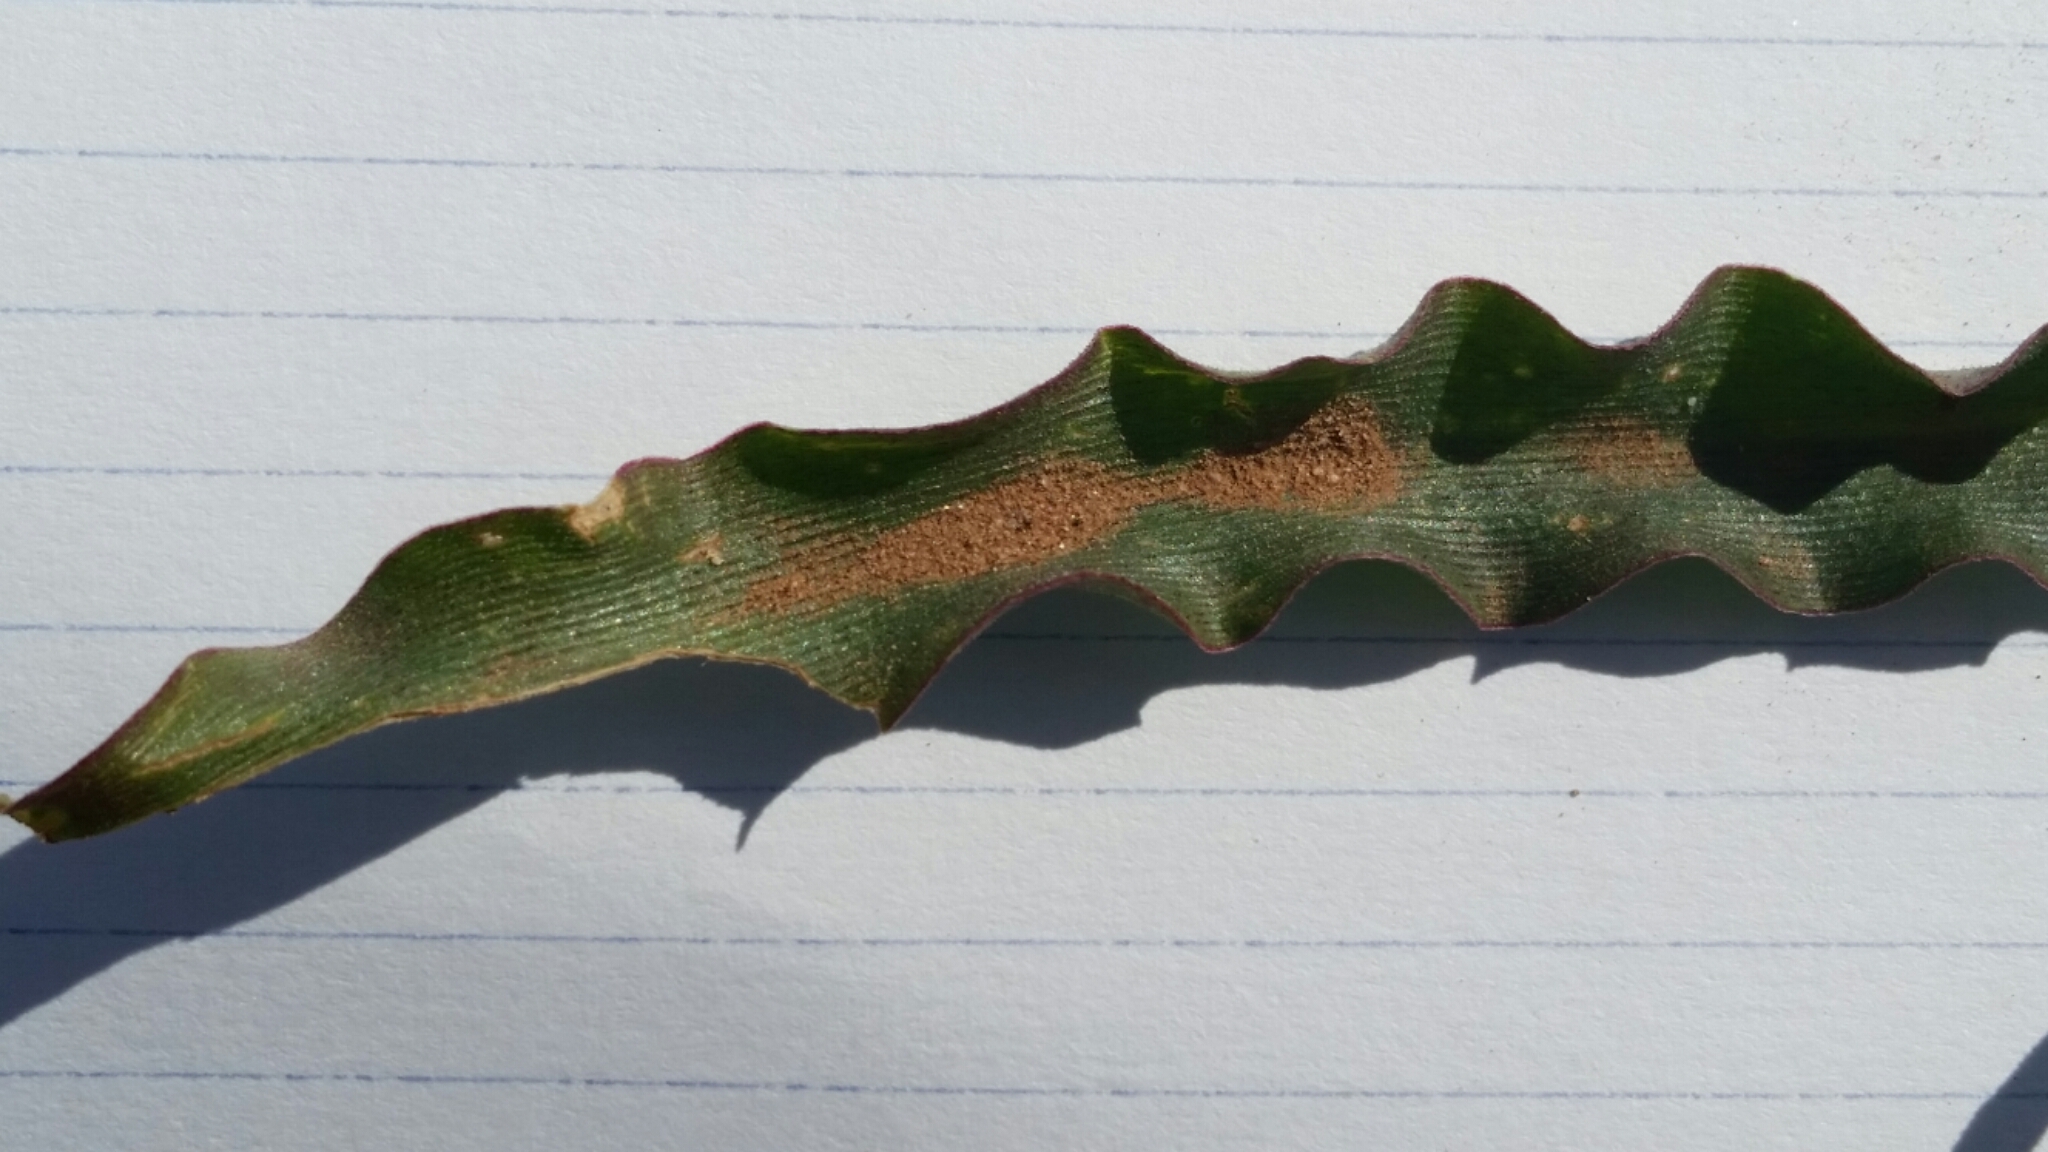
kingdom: Plantae
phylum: Tracheophyta
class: Liliopsida
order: Asparagales
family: Asparagaceae
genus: Hooveria
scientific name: Hooveria parviflora
